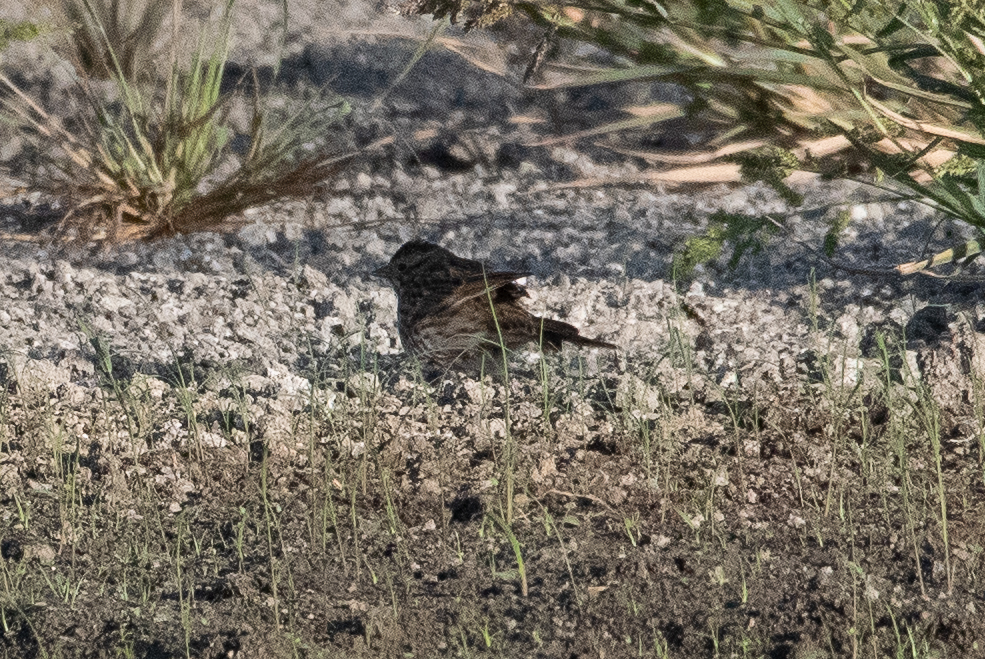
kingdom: Animalia
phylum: Chordata
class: Aves
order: Passeriformes
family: Passerellidae
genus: Passerculus
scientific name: Passerculus sandwichensis
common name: Savannah sparrow
